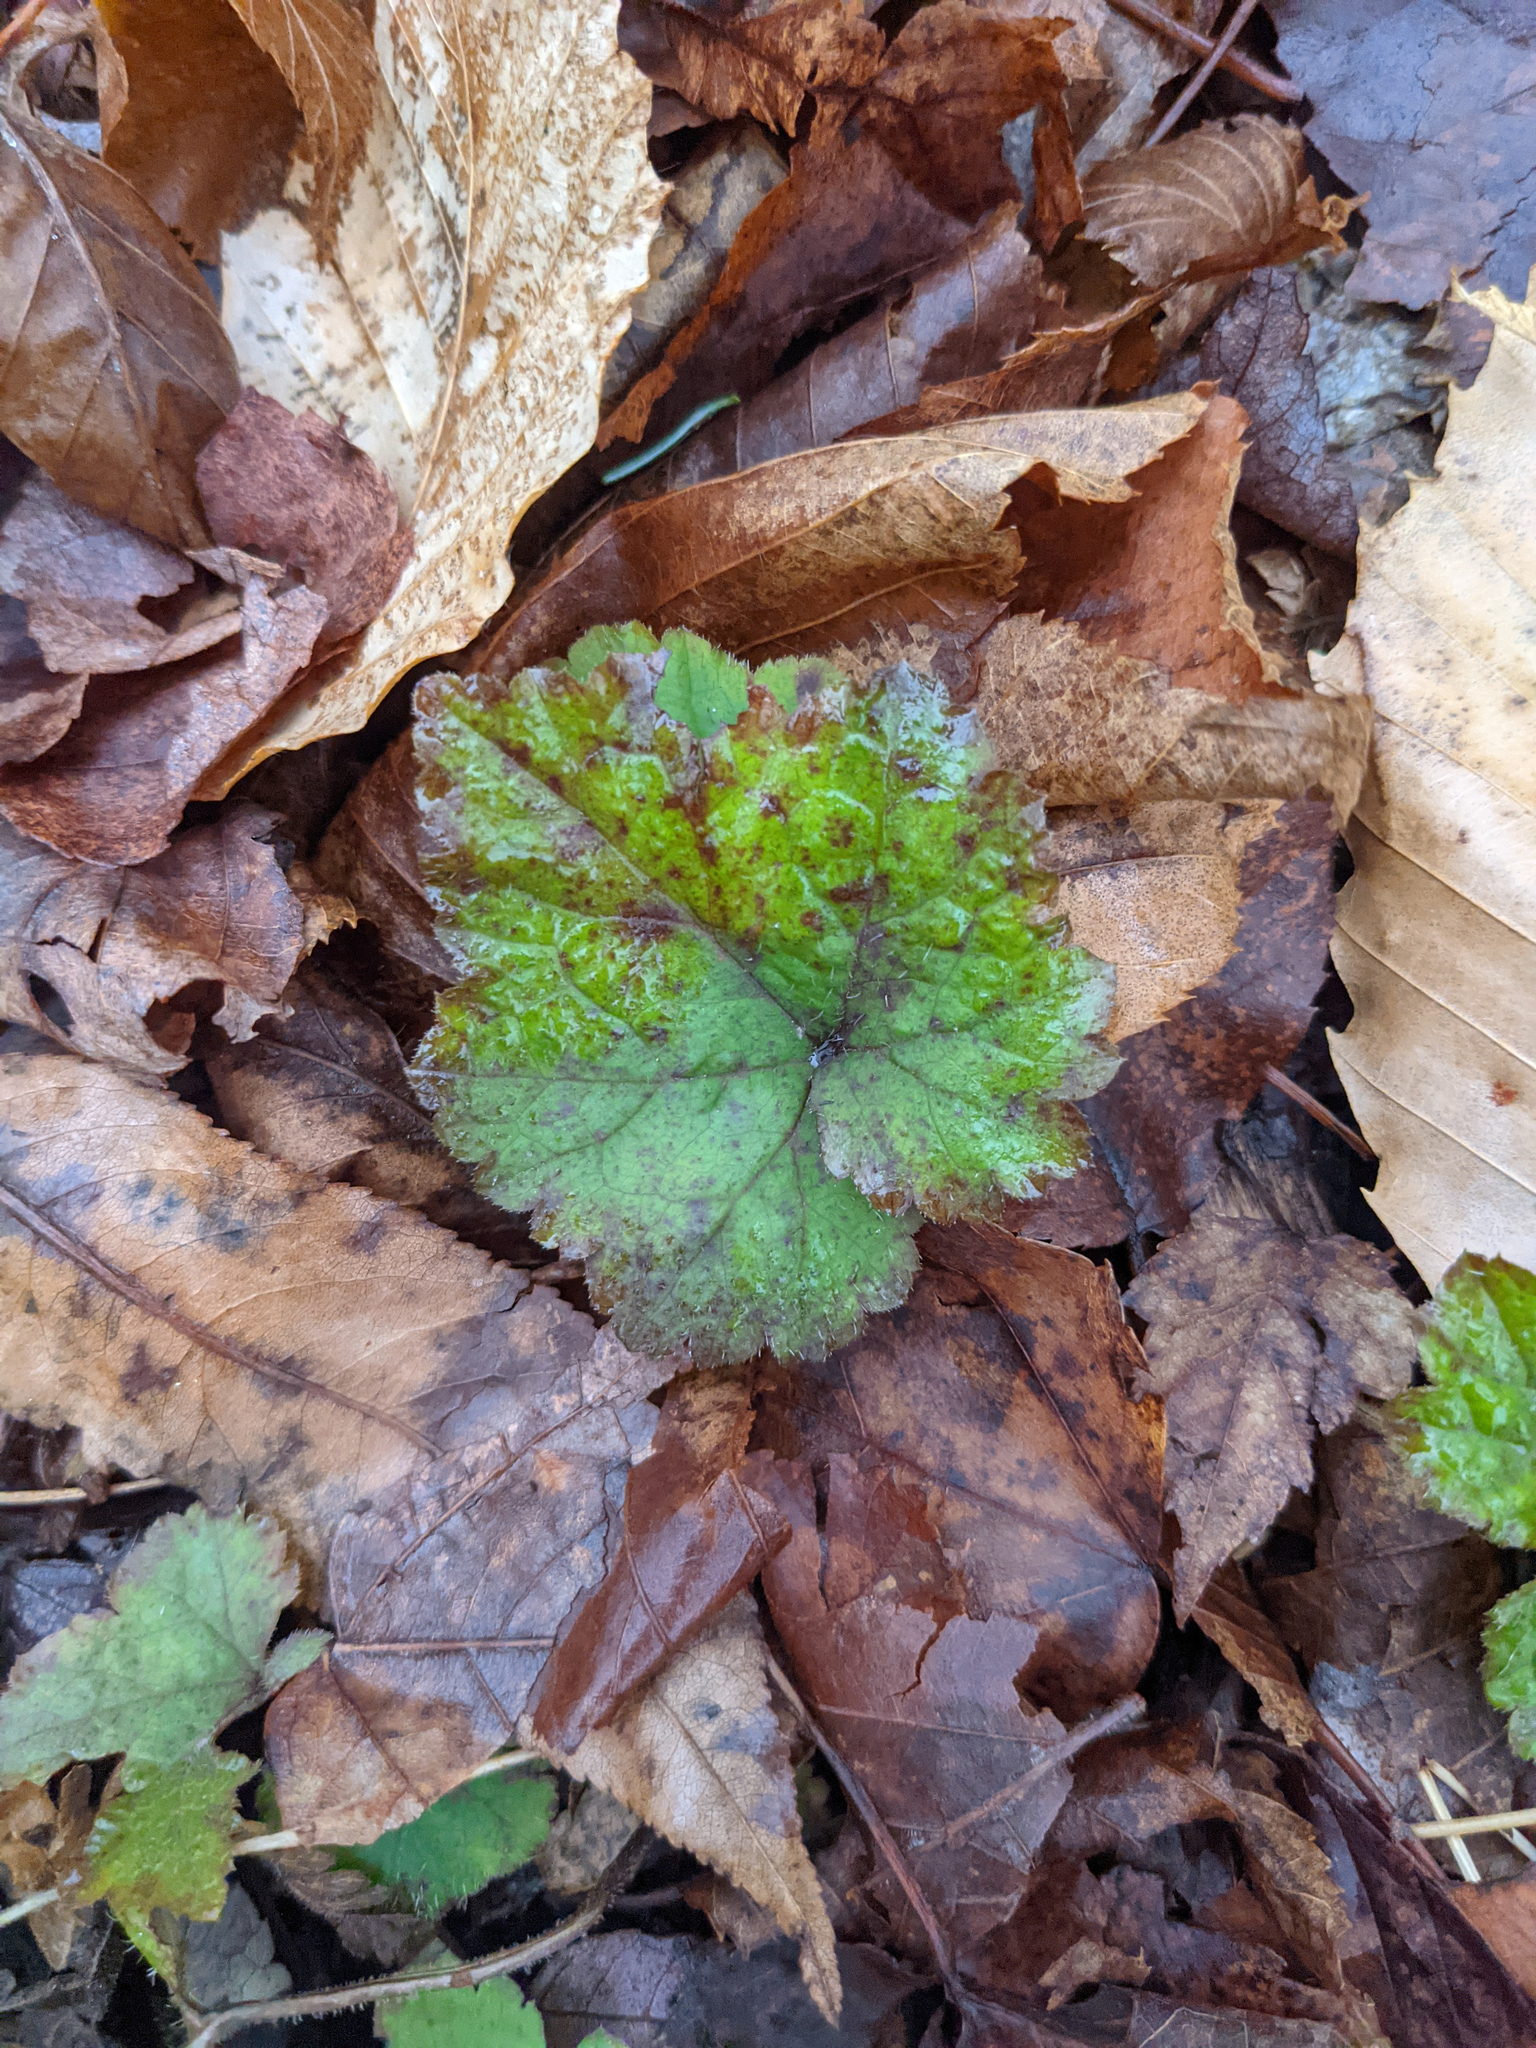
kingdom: Plantae
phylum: Tracheophyta
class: Magnoliopsida
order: Saxifragales
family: Saxifragaceae
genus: Tiarella
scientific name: Tiarella stolonifera
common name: Stoloniferous foamflower
